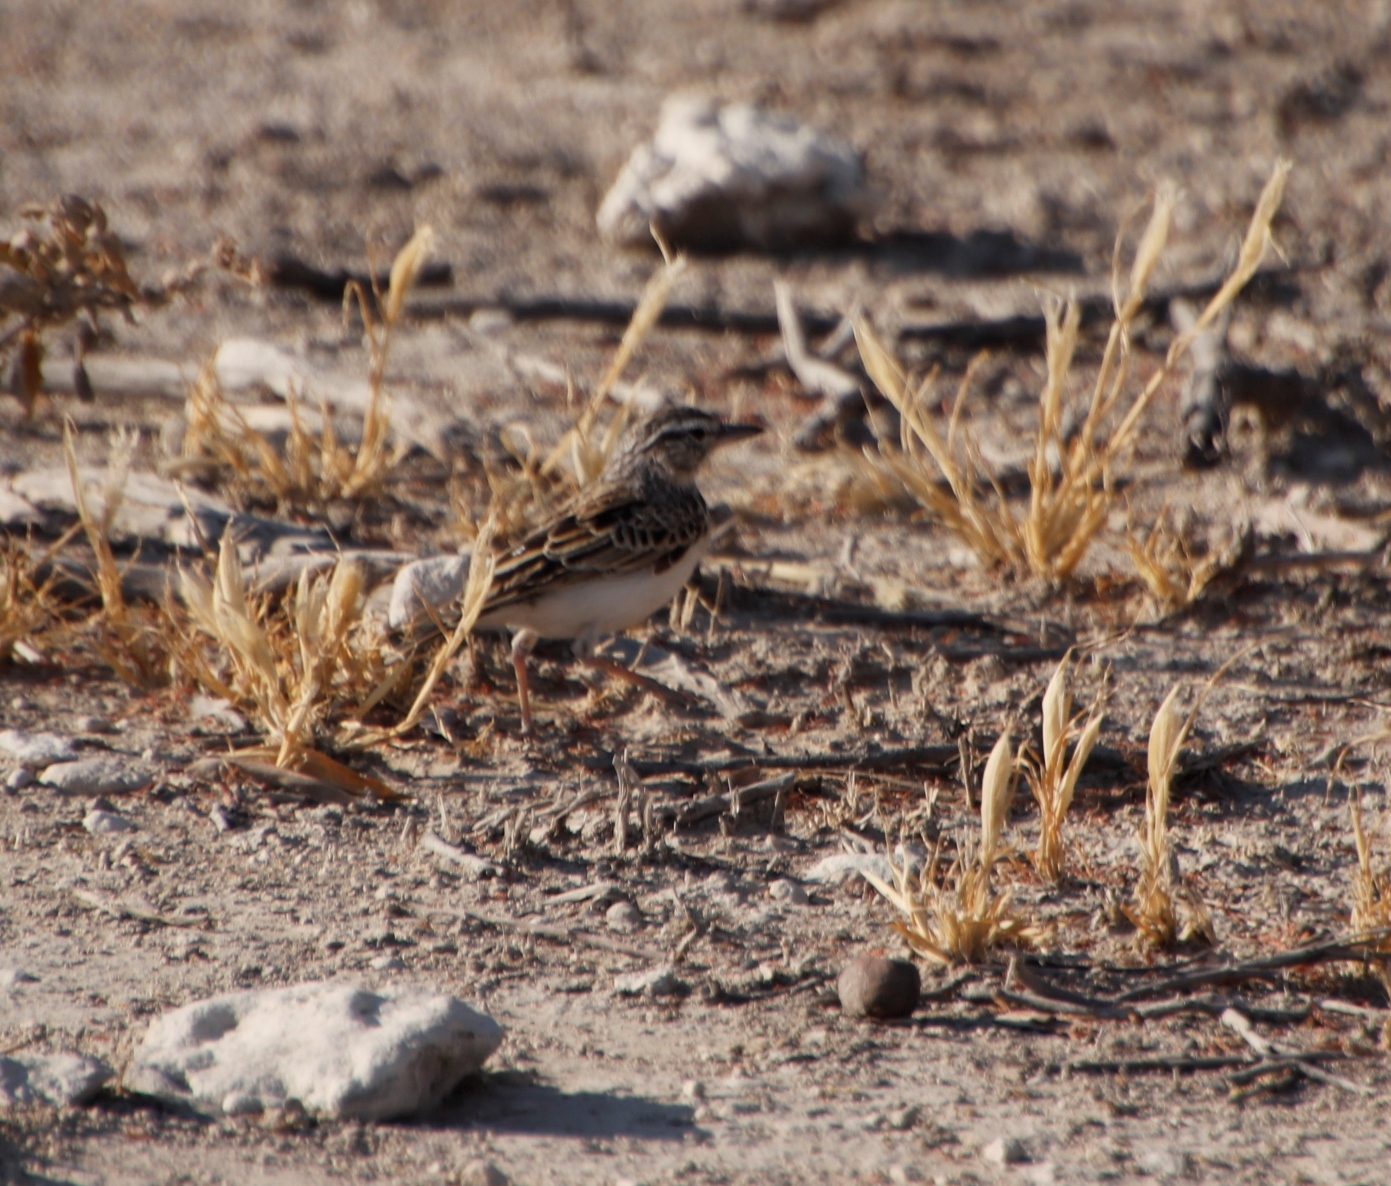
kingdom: Animalia
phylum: Chordata
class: Aves
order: Passeriformes
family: Alaudidae
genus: Calendulauda
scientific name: Calendulauda sabota
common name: Sabota lark
